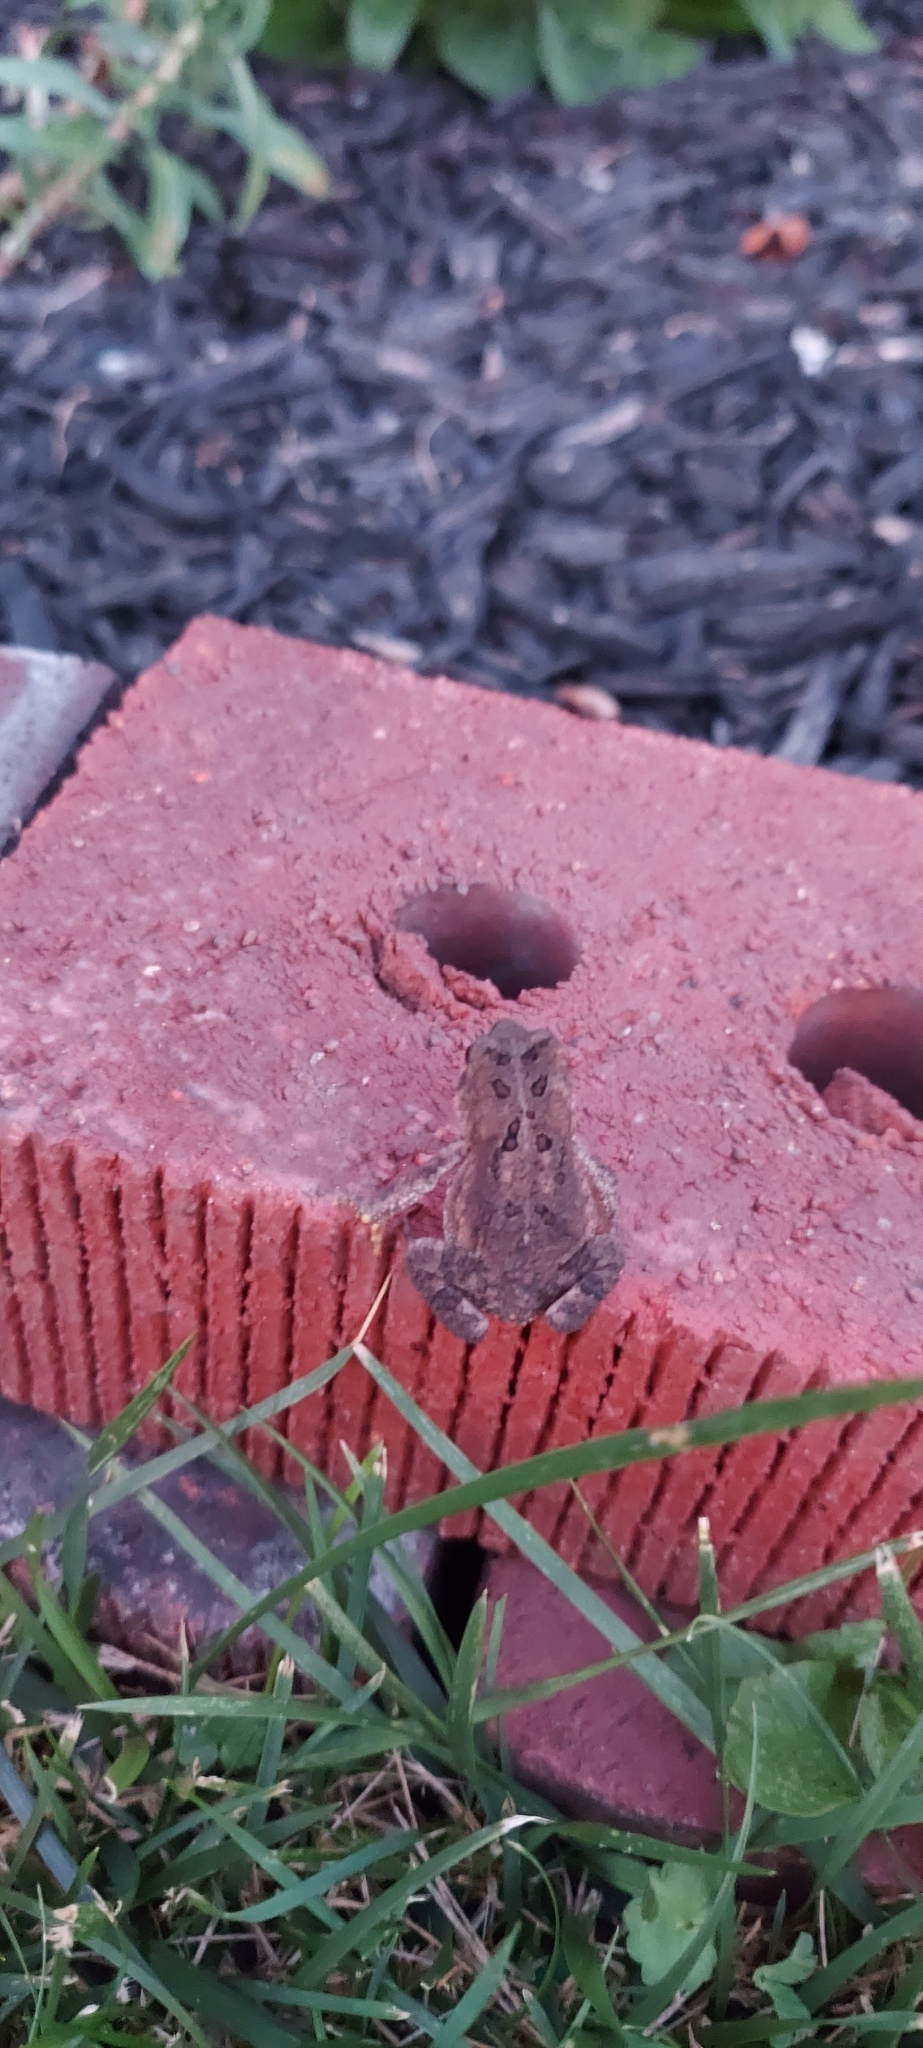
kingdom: Animalia
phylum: Chordata
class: Amphibia
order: Anura
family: Bufonidae
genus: Anaxyrus
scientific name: Anaxyrus americanus
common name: American toad
